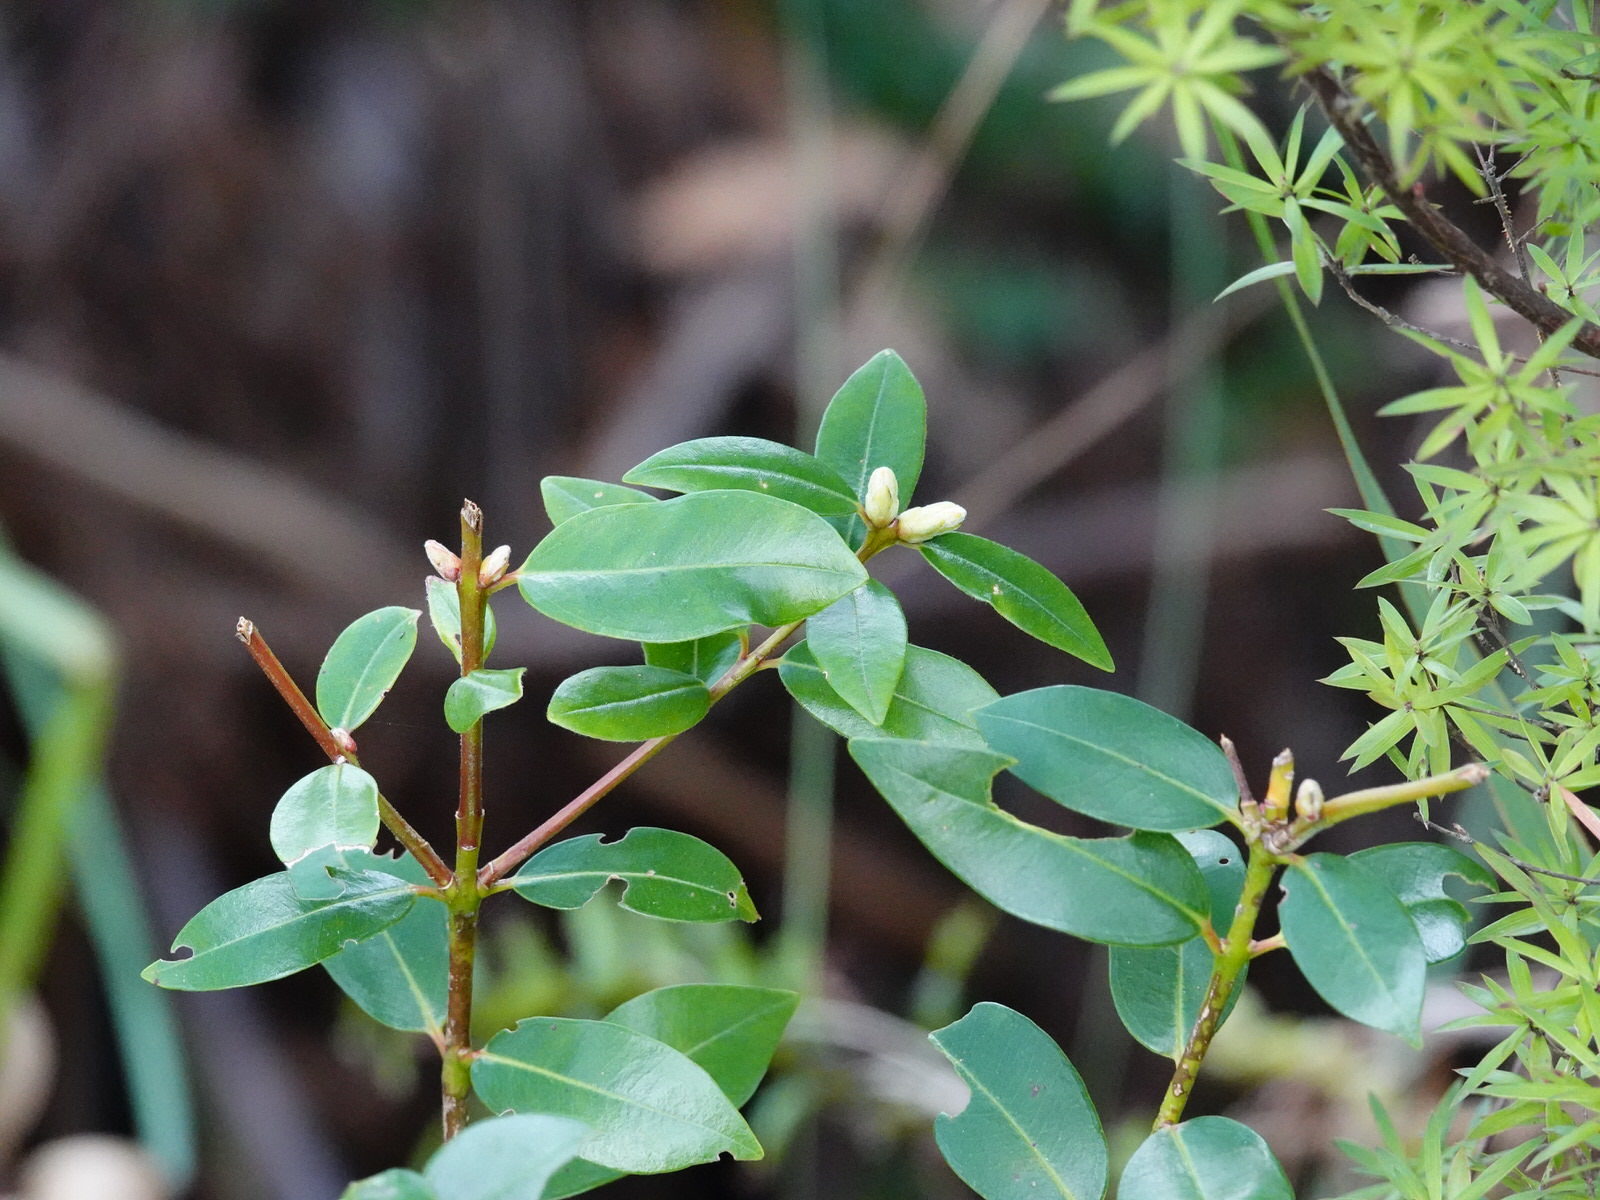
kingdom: Plantae
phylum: Tracheophyta
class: Magnoliopsida
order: Myrtales
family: Myrtaceae
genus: Metrosideros
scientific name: Metrosideros excelsa
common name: New zealand christmastree
